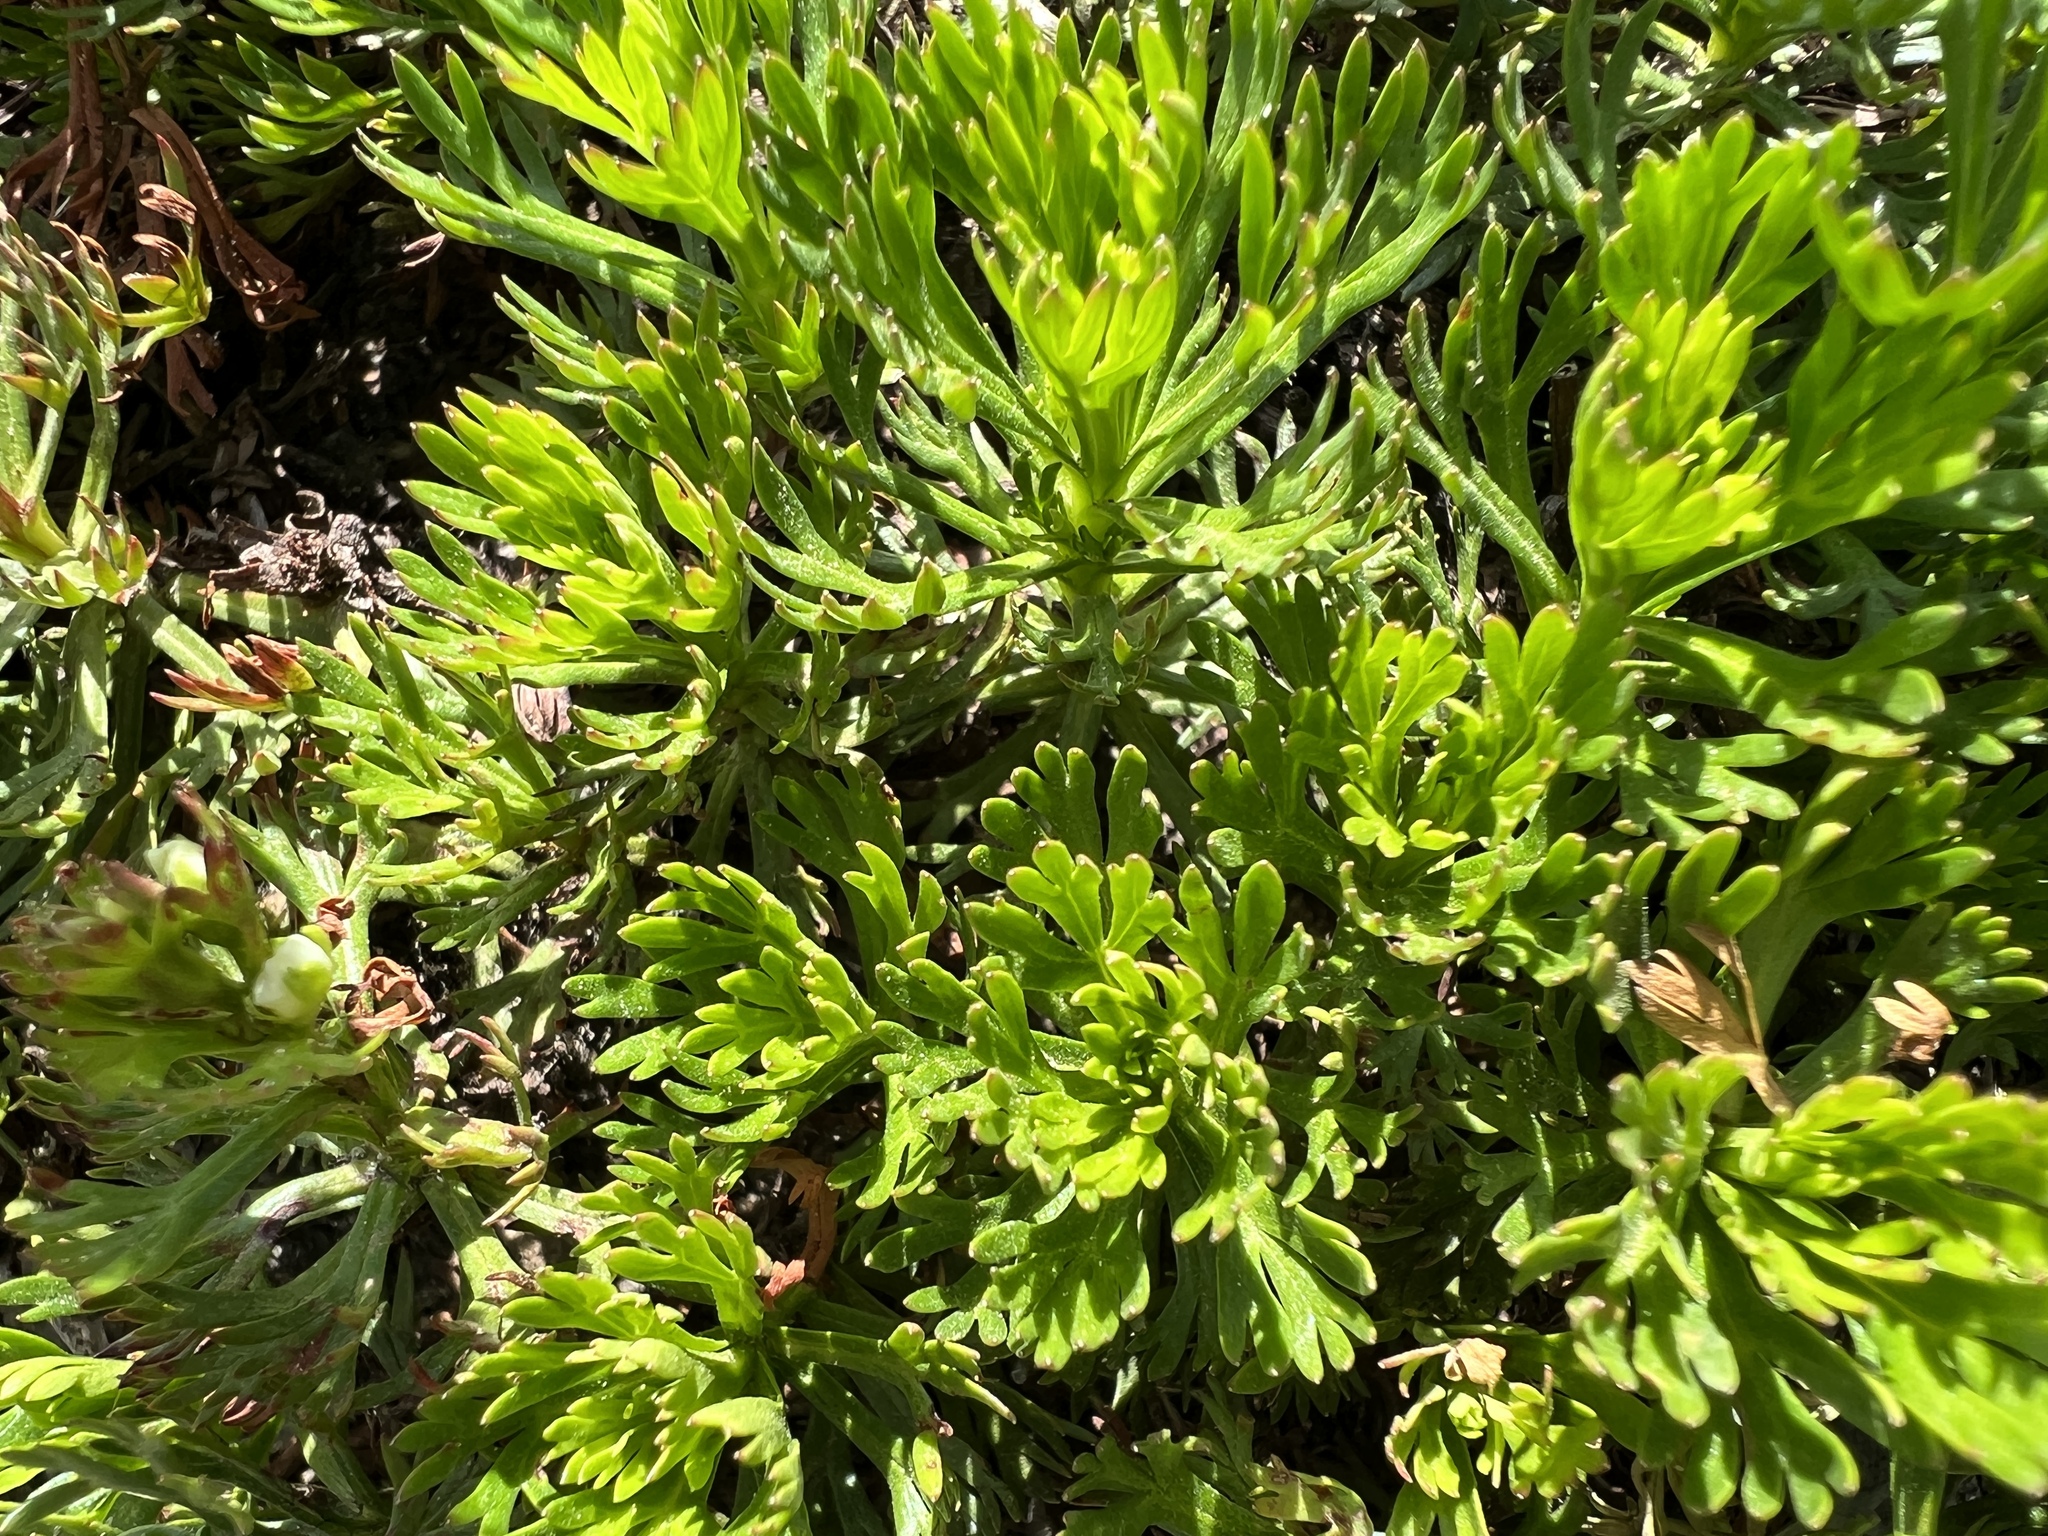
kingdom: Plantae
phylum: Tracheophyta
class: Magnoliopsida
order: Rosales
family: Rosaceae
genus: Luetkea
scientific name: Luetkea pectinata
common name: Partridgefoot
